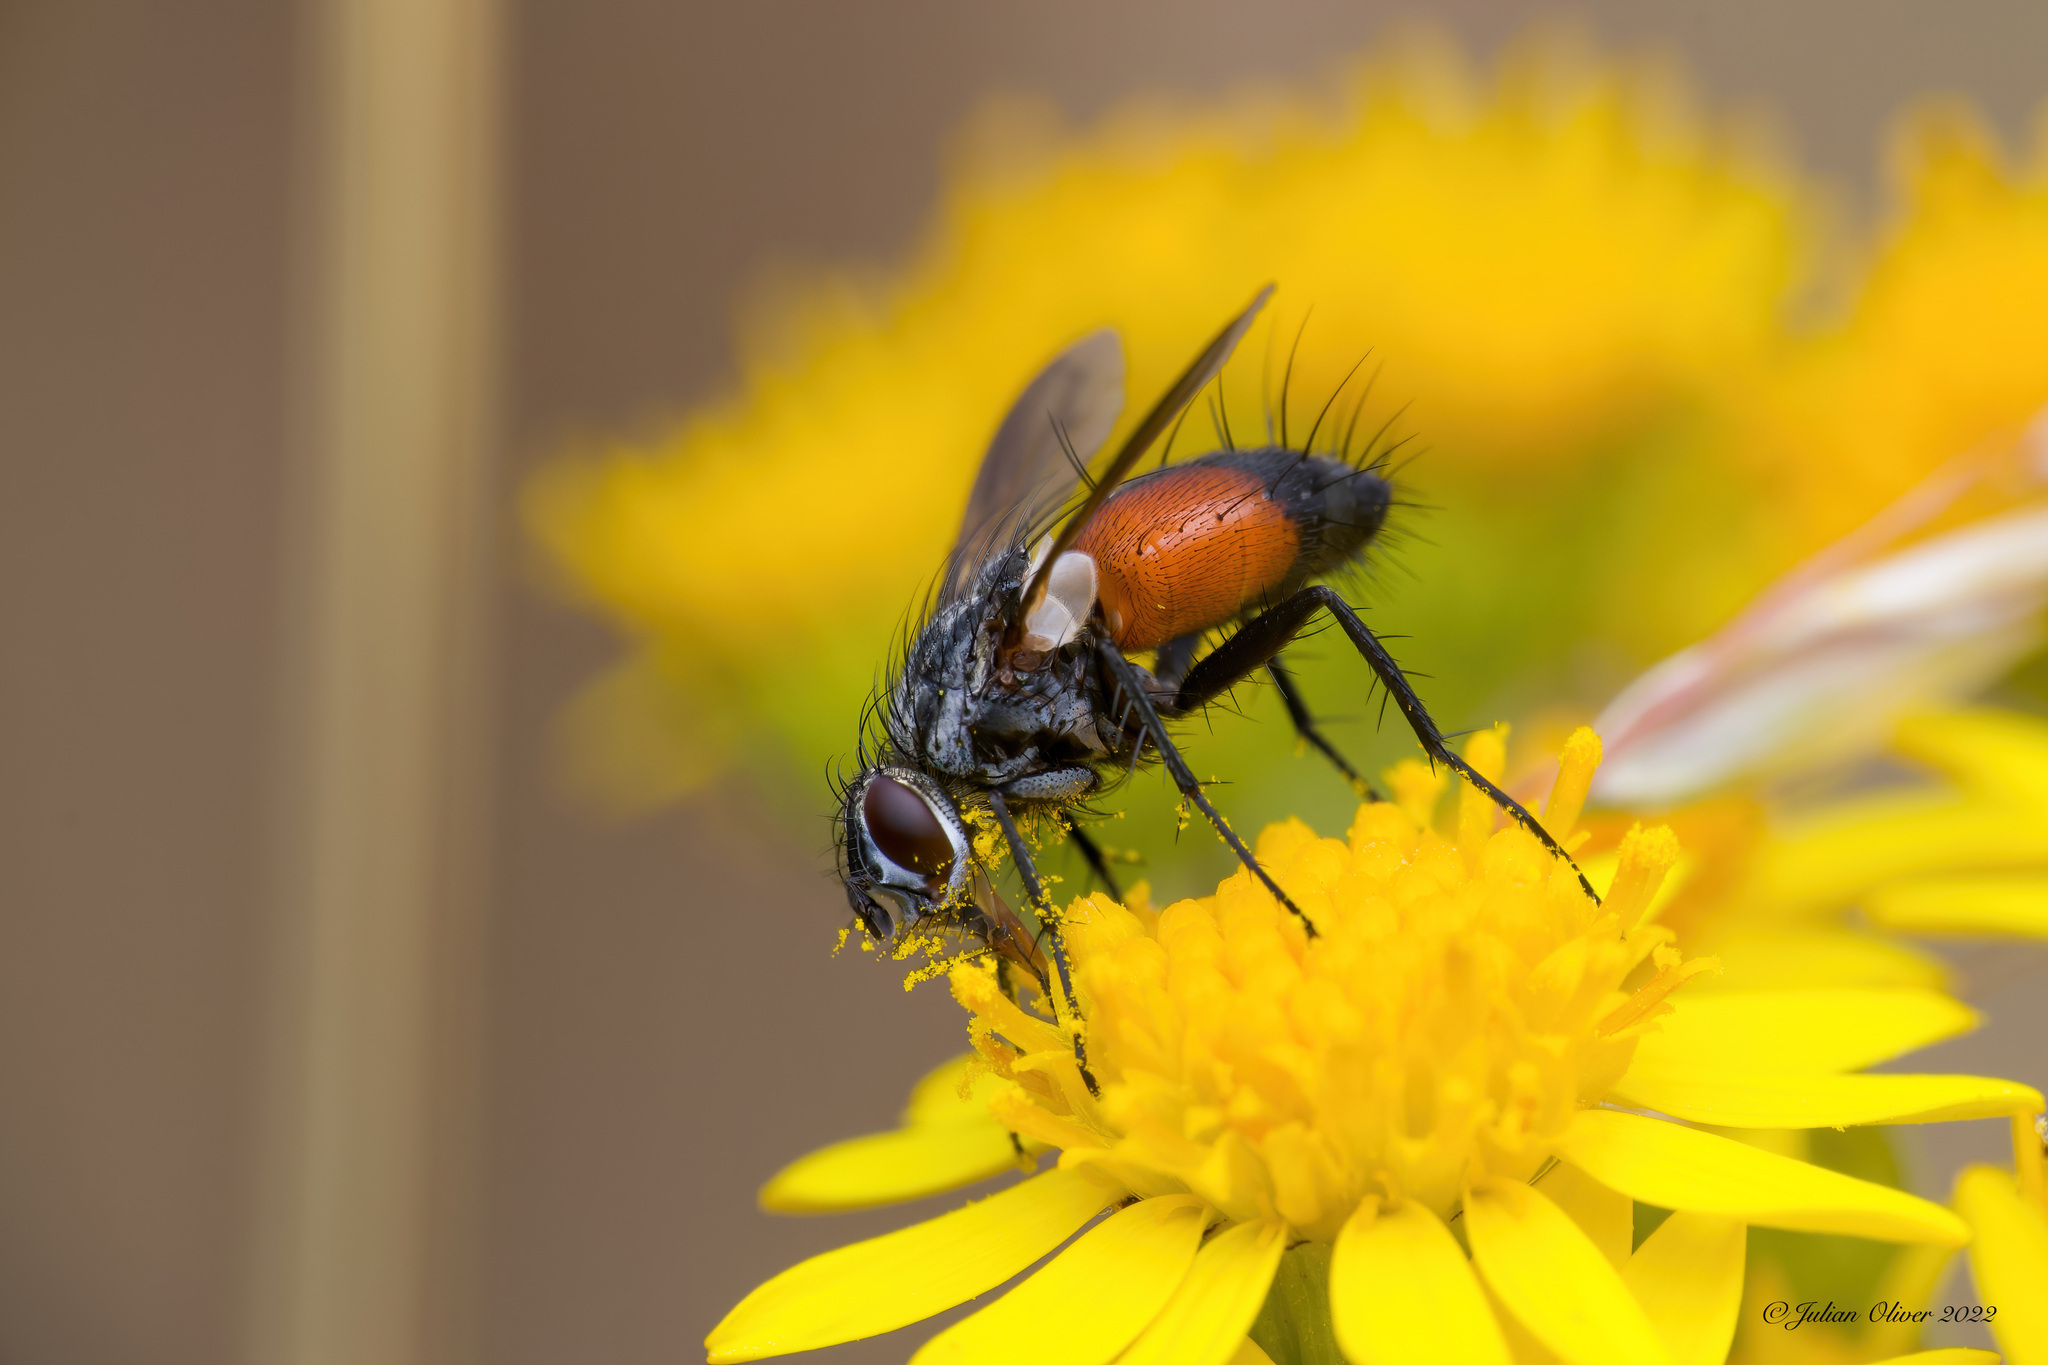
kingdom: Animalia
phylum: Arthropoda
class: Insecta
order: Diptera
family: Tachinidae
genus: Eriothrix
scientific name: Eriothrix rufomaculatus
